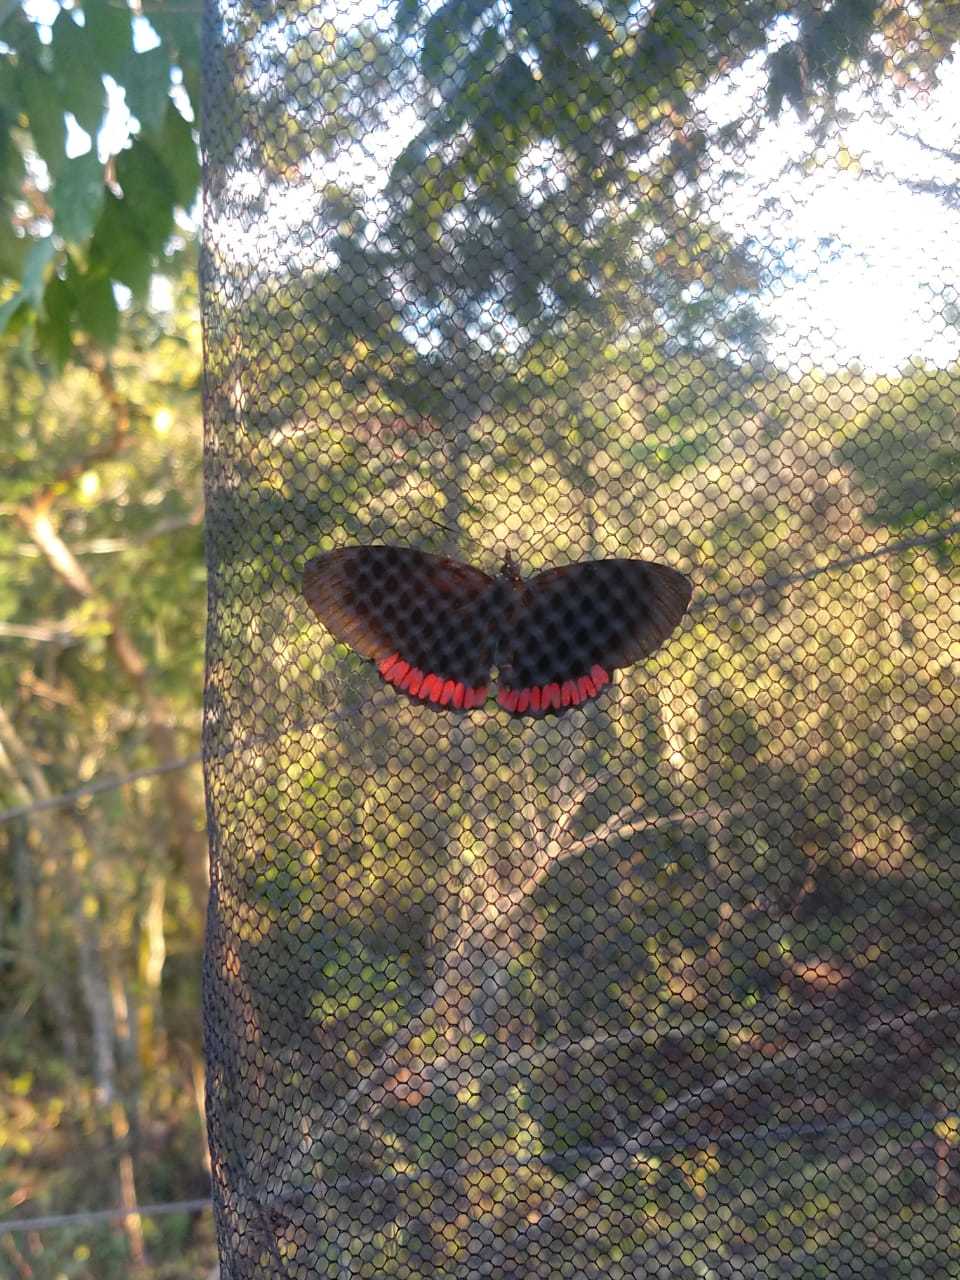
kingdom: Animalia
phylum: Arthropoda
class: Insecta
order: Lepidoptera
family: Sesiidae
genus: Sesia
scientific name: Sesia Biblis hyperia
